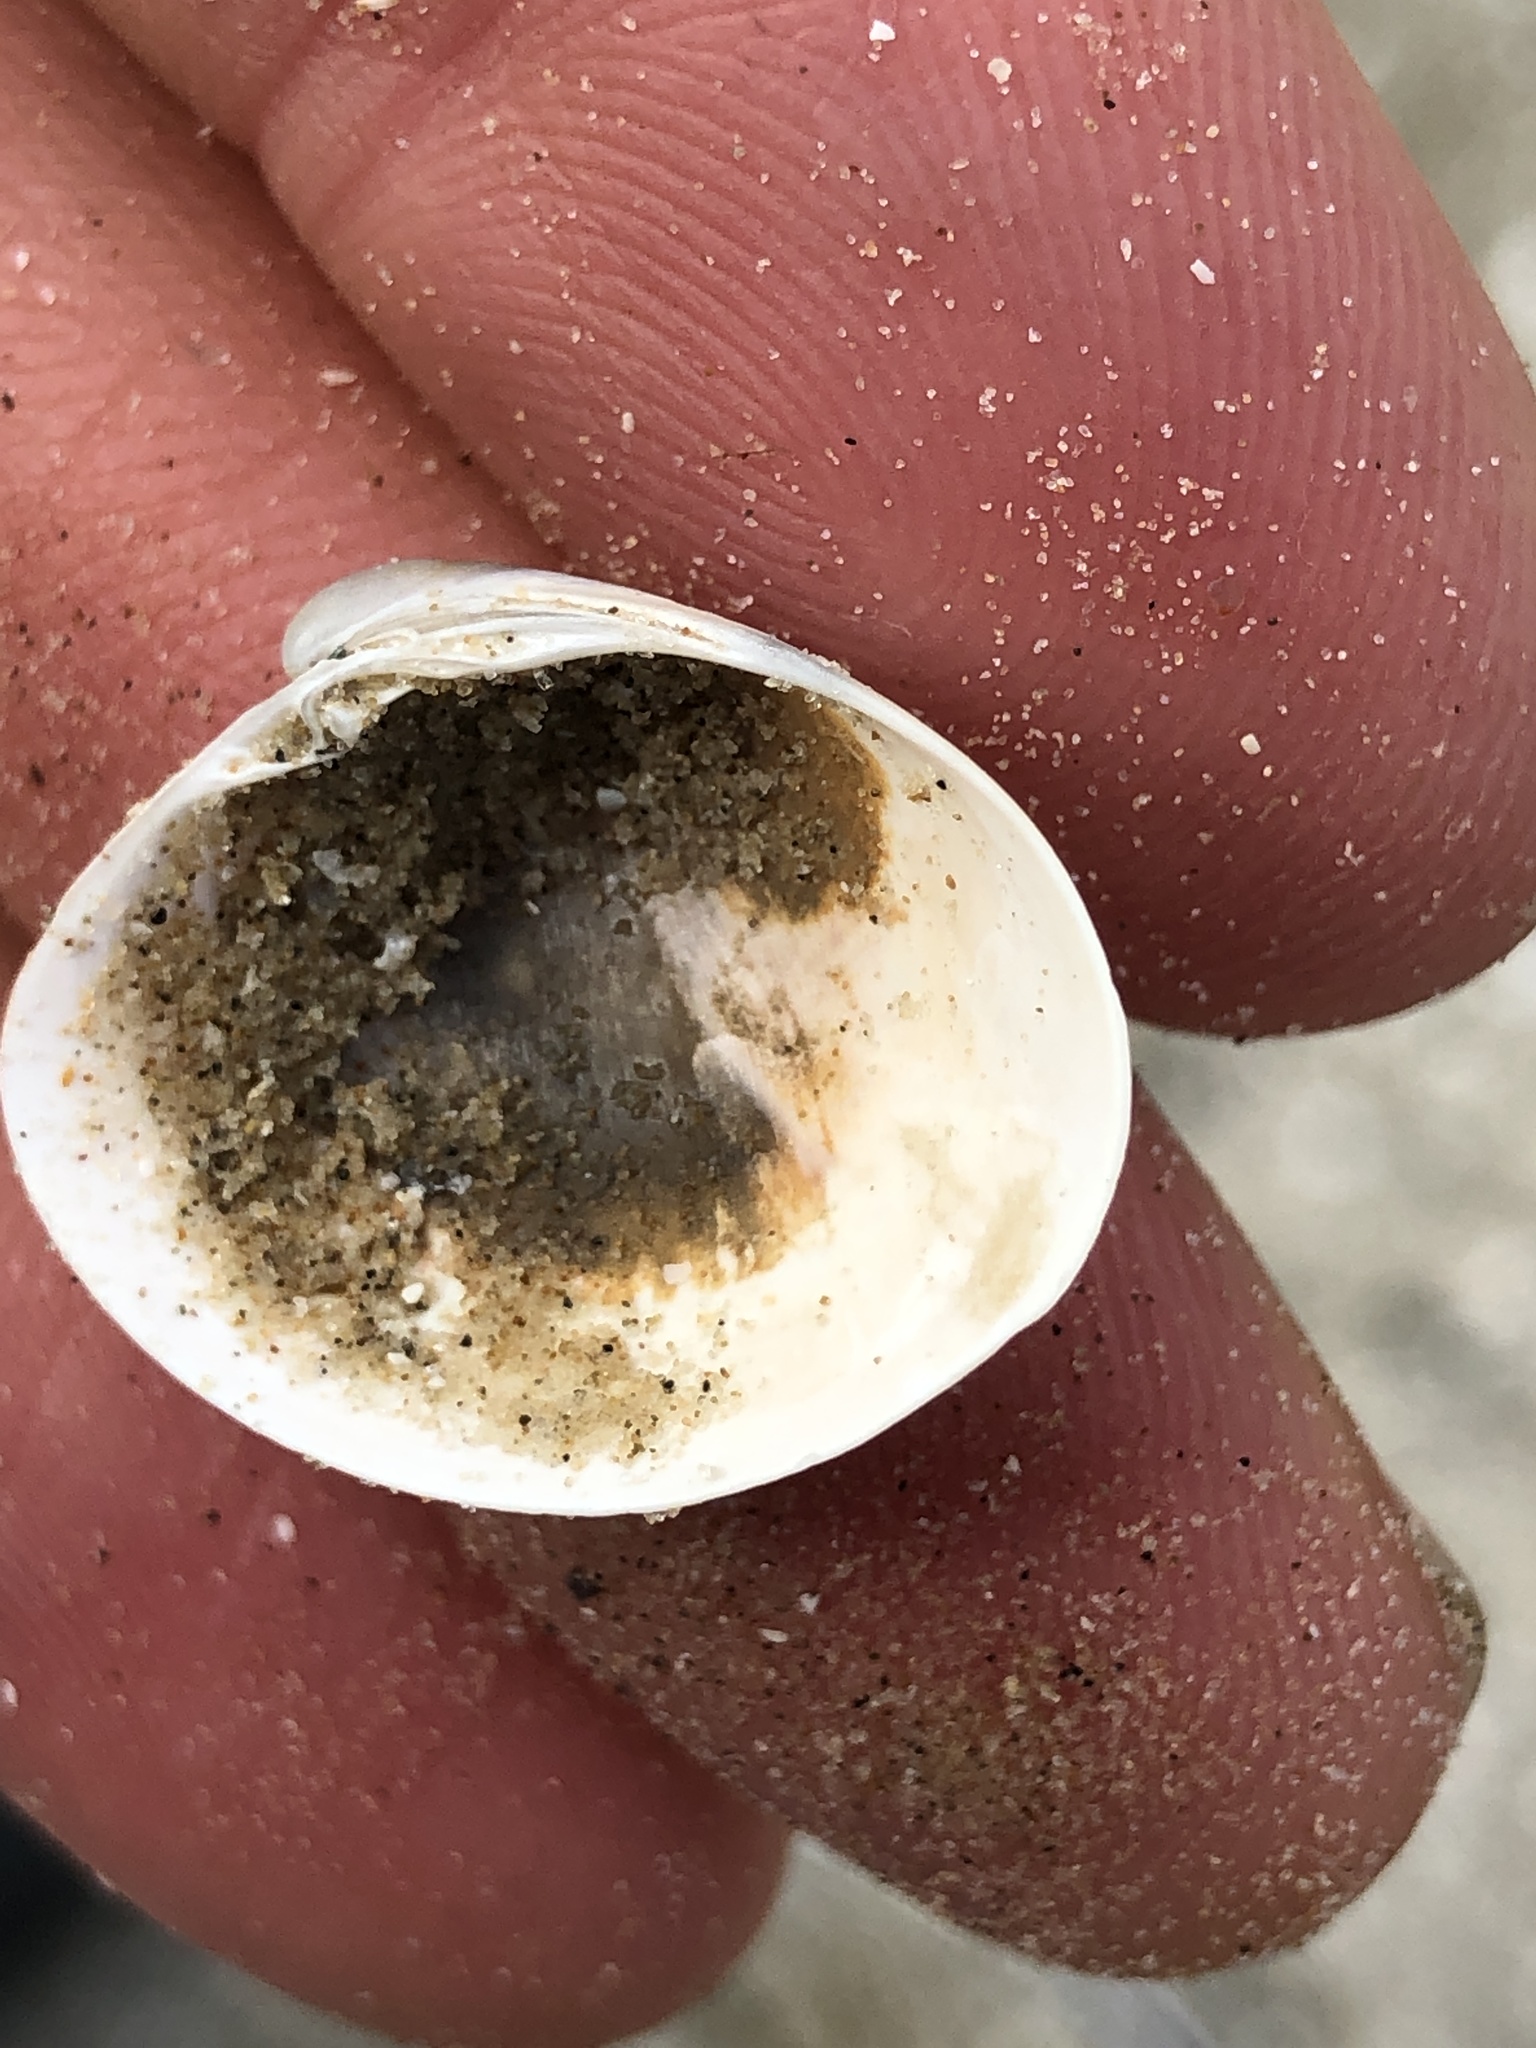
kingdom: Animalia
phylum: Mollusca
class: Bivalvia
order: Venerida
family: Veneridae
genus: Agriopoma
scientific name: Agriopoma texasianum
